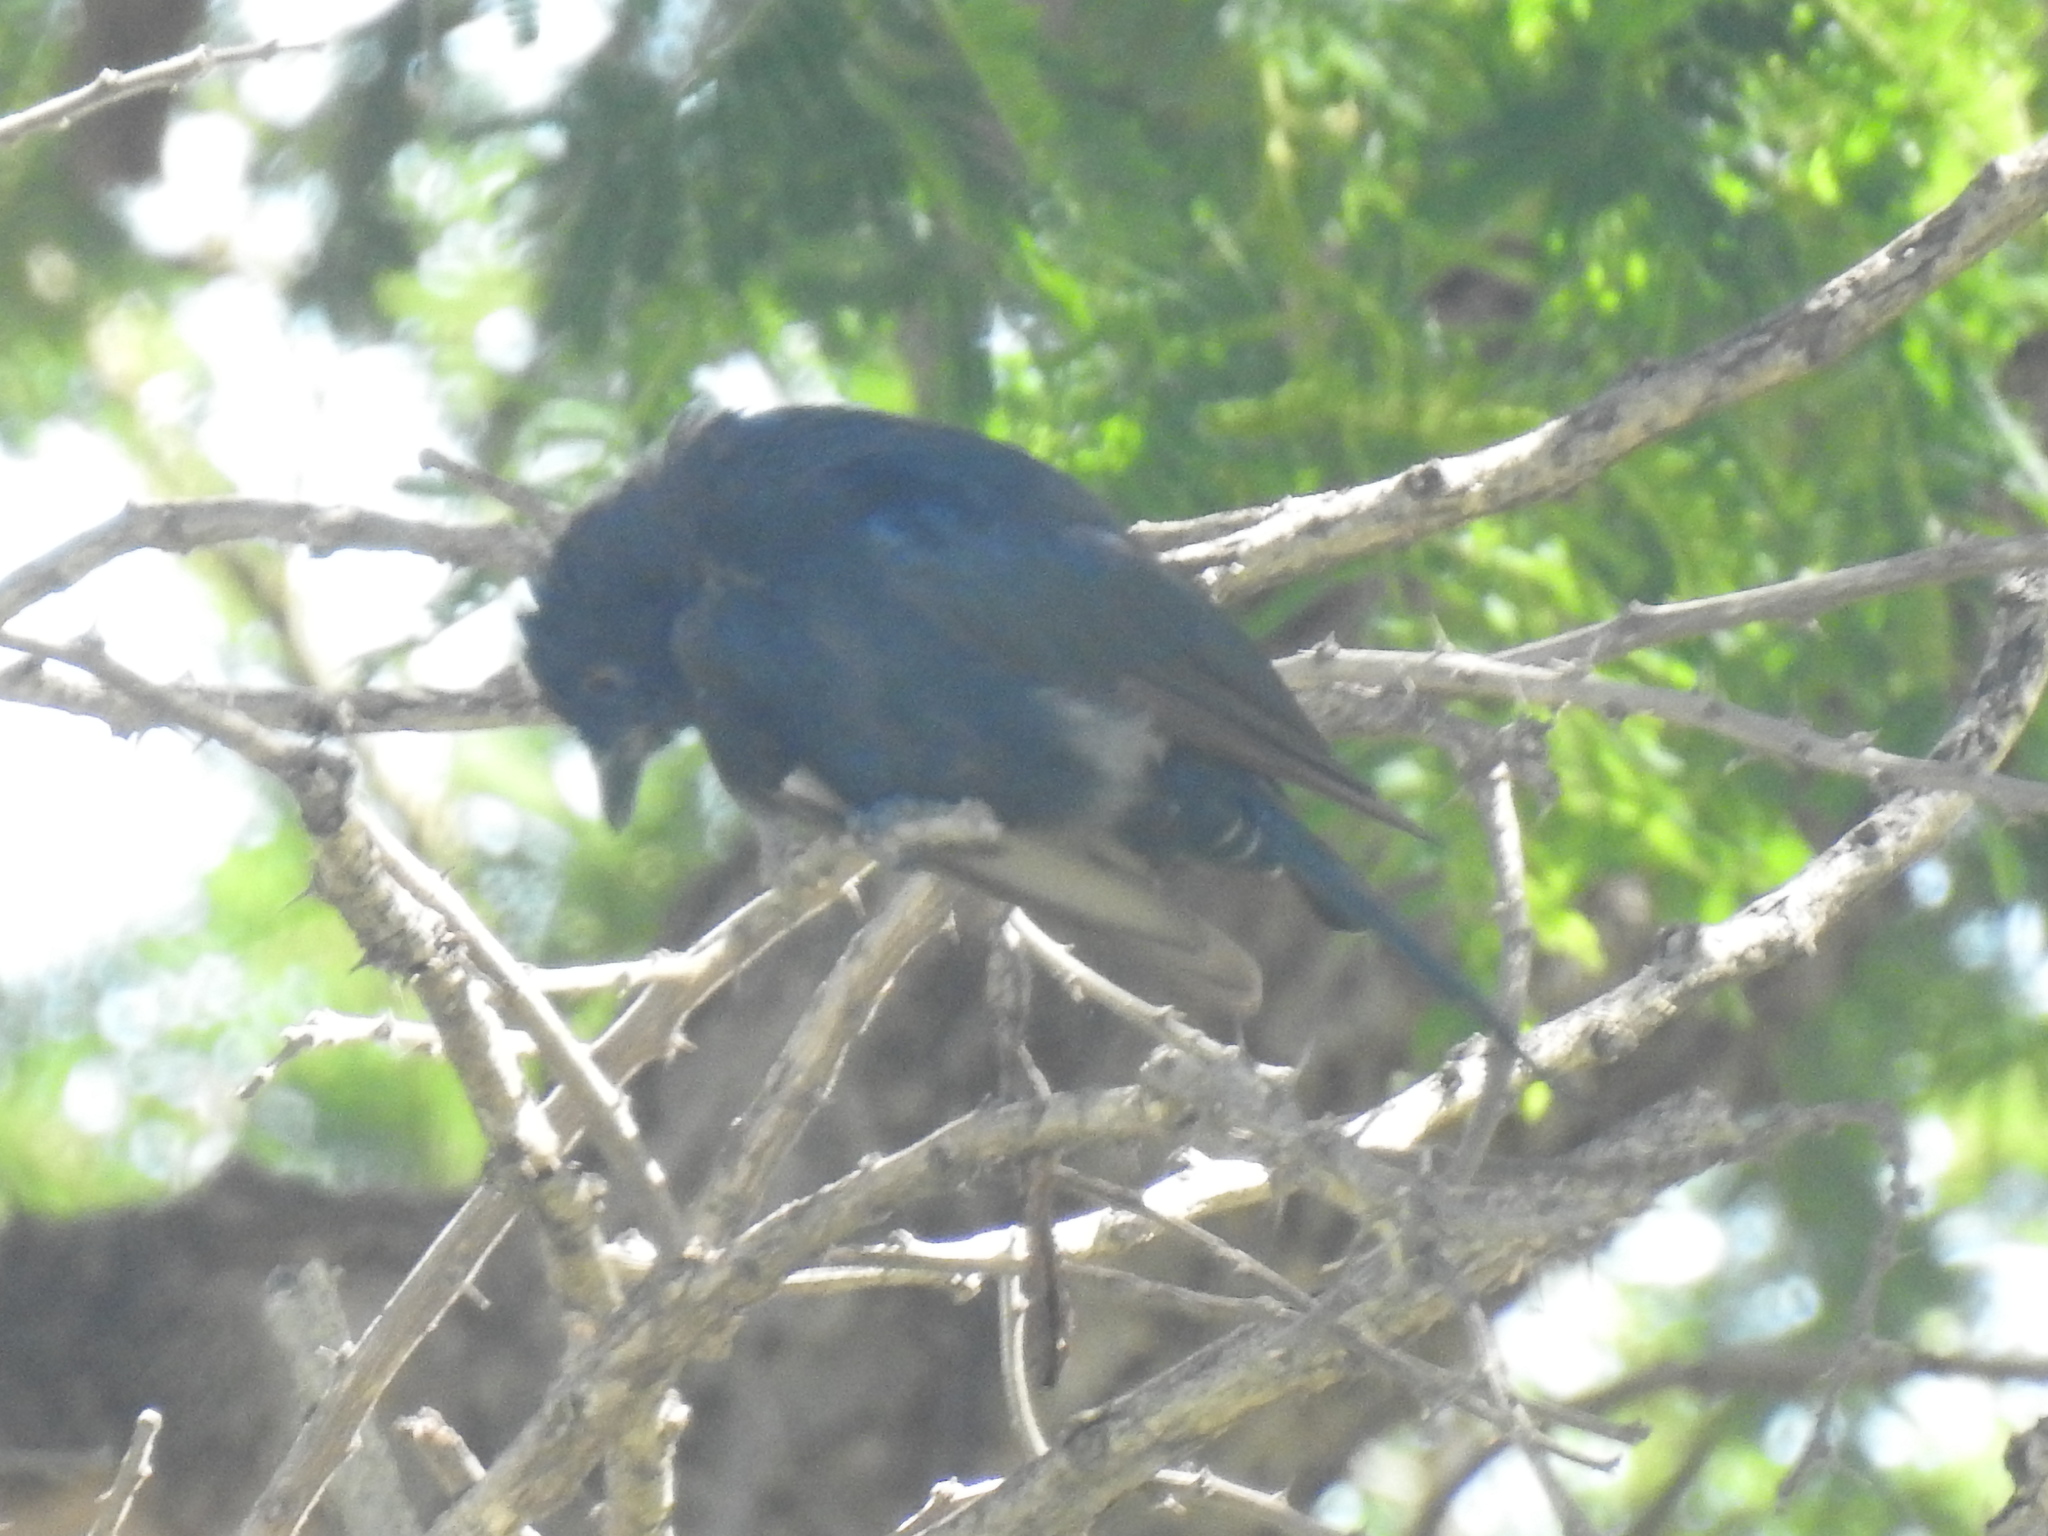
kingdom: Animalia
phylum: Chordata
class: Aves
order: Passeriformes
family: Dicruridae
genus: Dicrurus
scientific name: Dicrurus adsimilis
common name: Fork-tailed drongo
